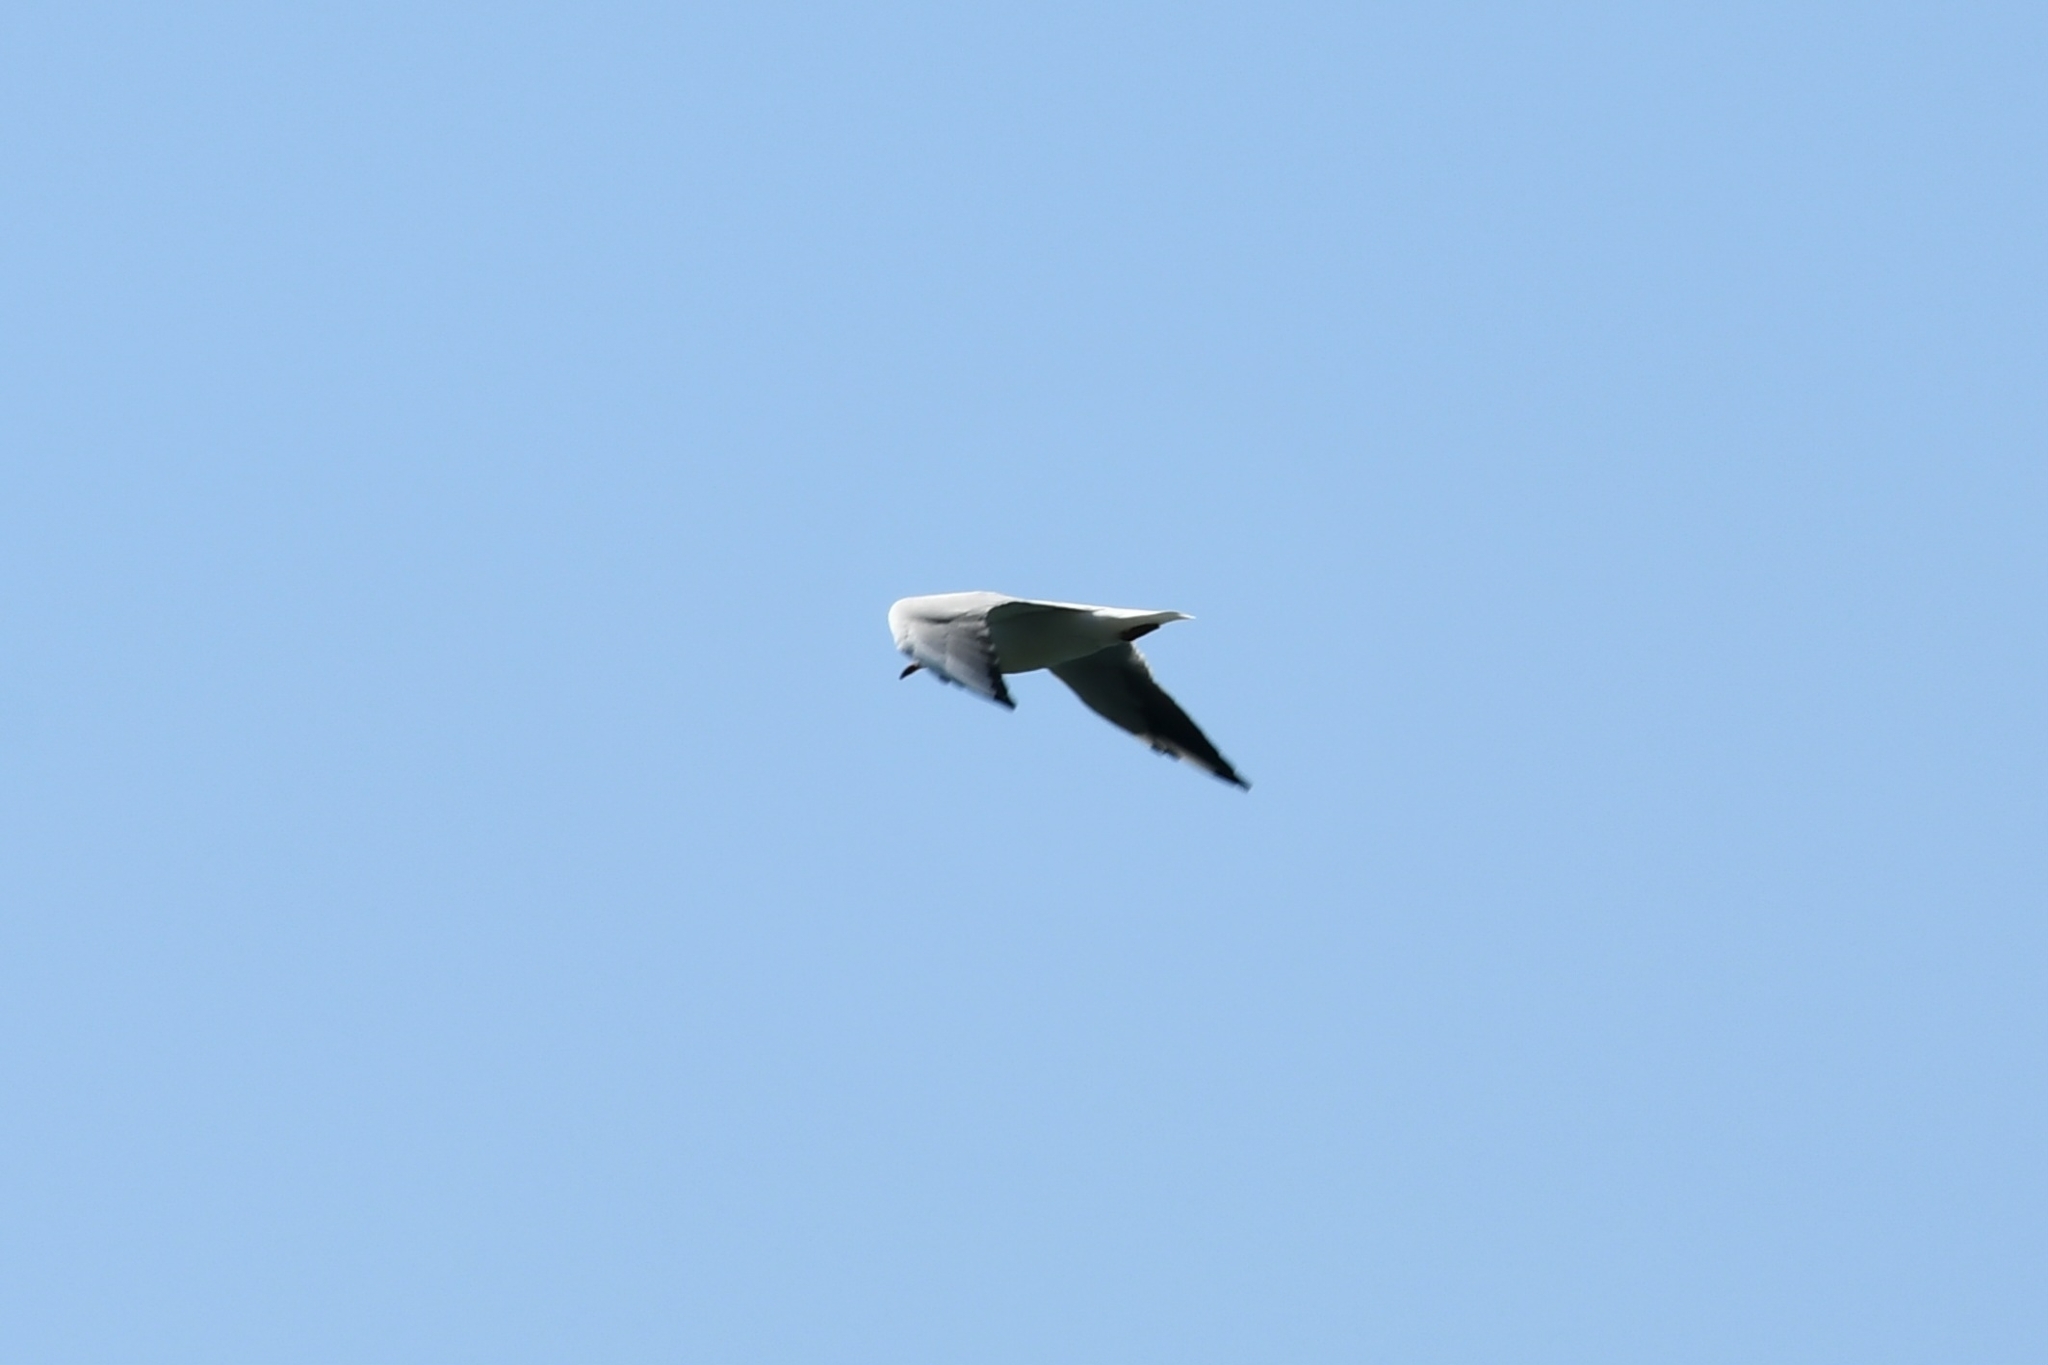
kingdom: Animalia
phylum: Chordata
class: Aves
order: Charadriiformes
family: Laridae
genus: Chroicocephalus
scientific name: Chroicocephalus ridibundus
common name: Black-headed gull
